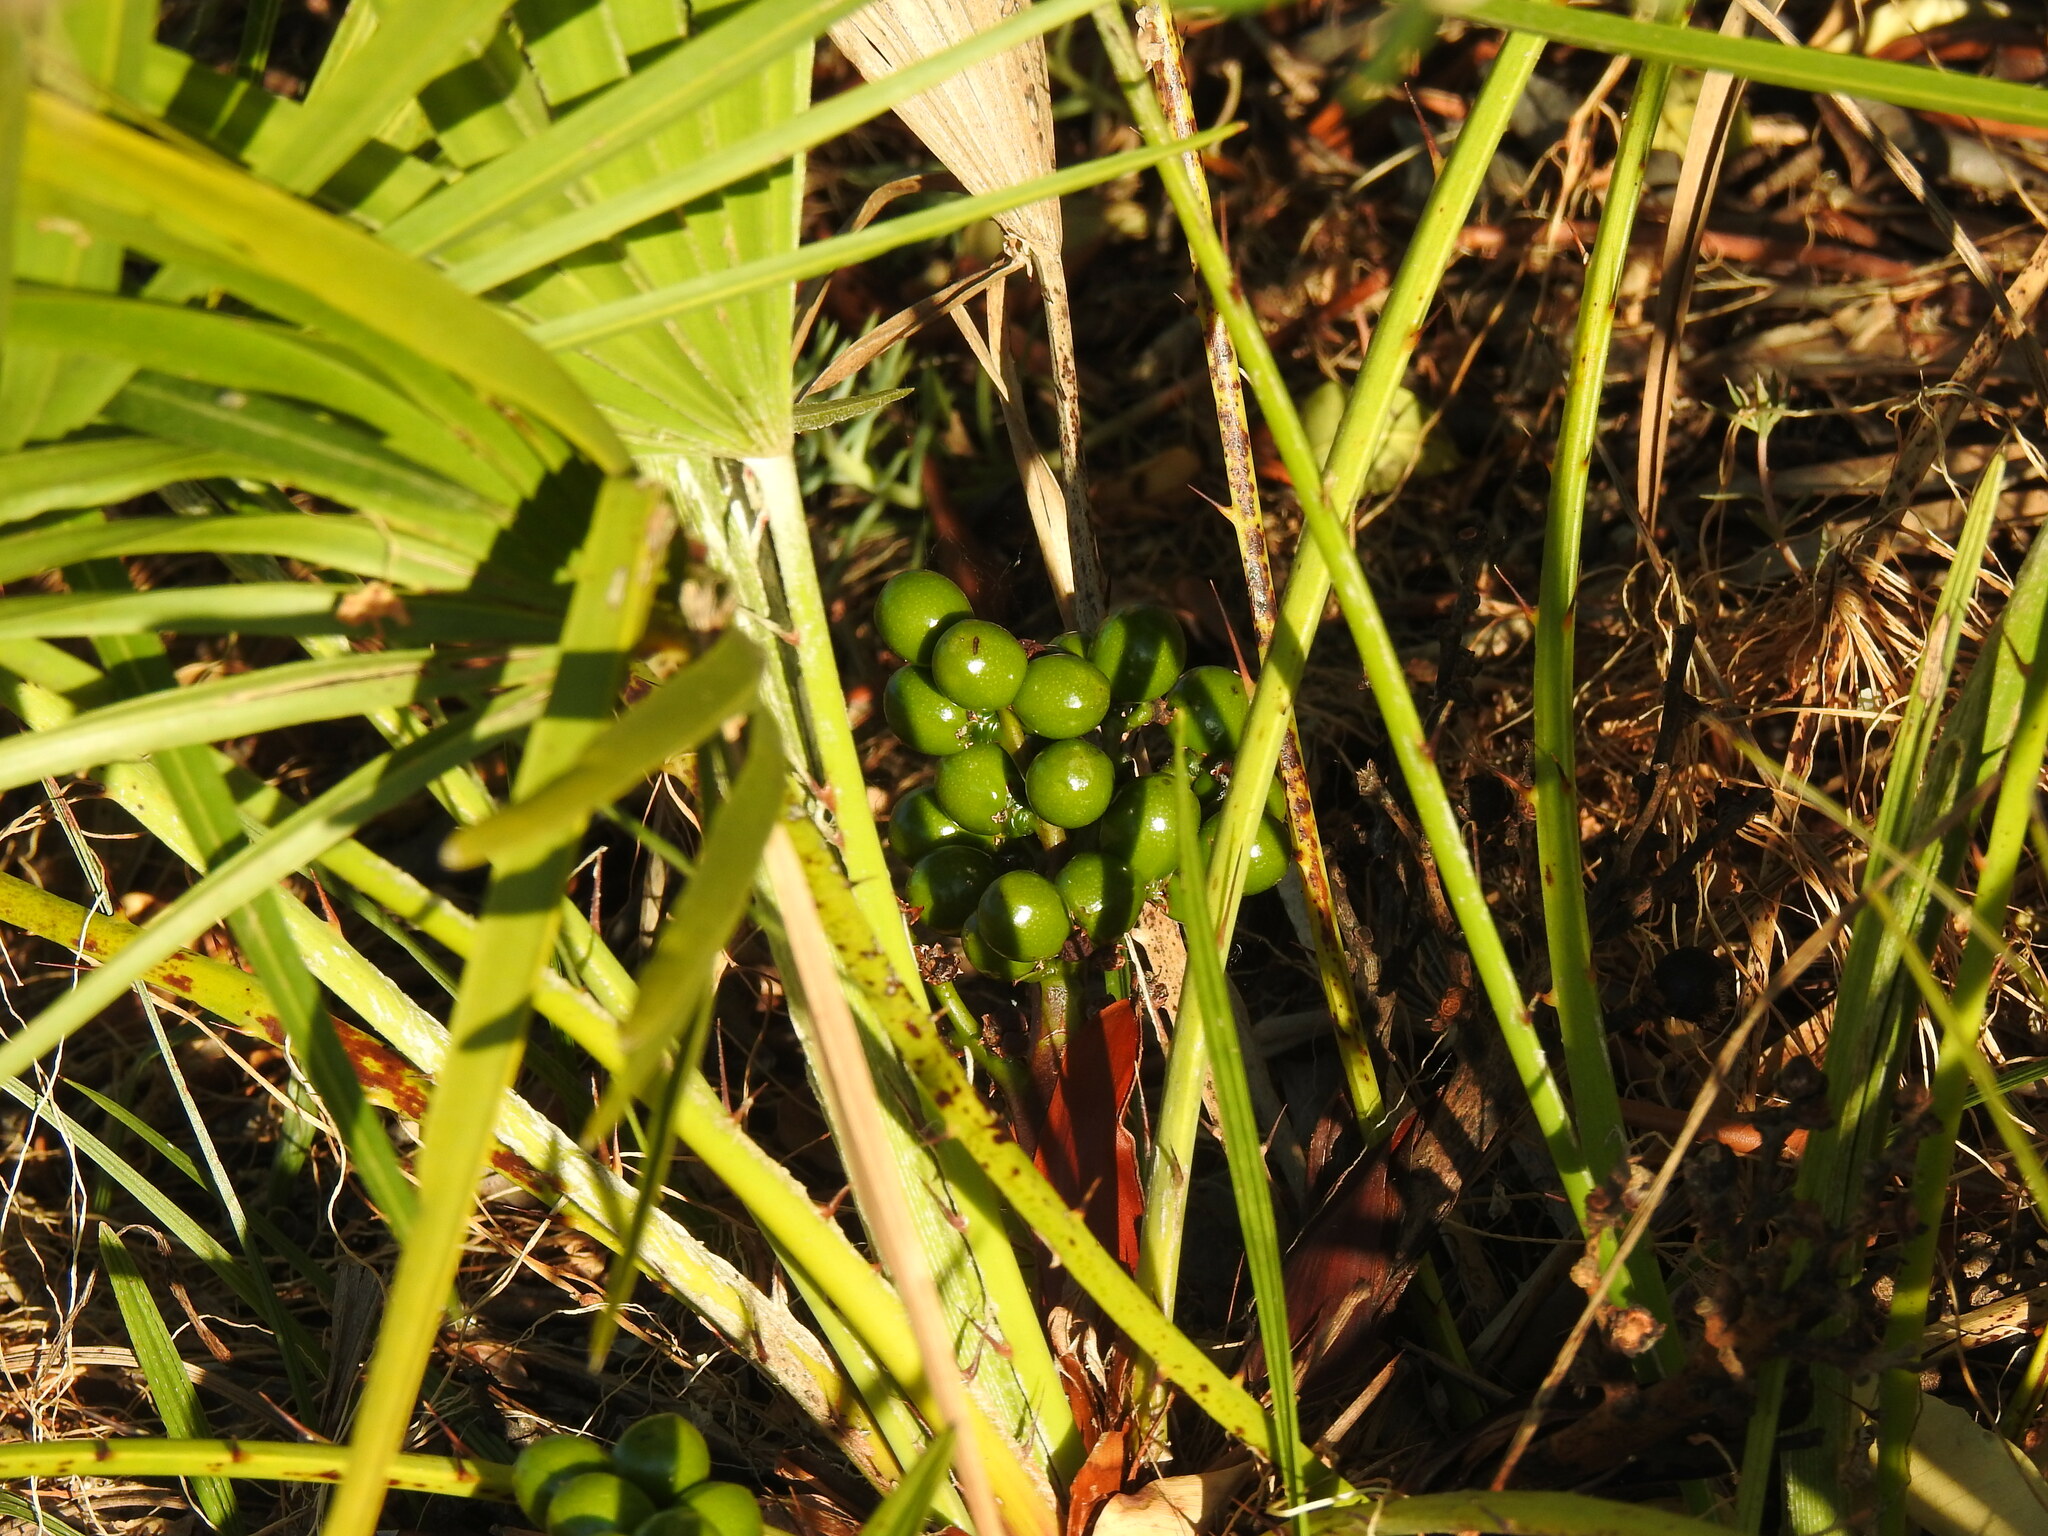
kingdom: Plantae
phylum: Tracheophyta
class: Liliopsida
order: Arecales
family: Arecaceae
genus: Chamaerops
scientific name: Chamaerops humilis
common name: Dwarf fan palm
